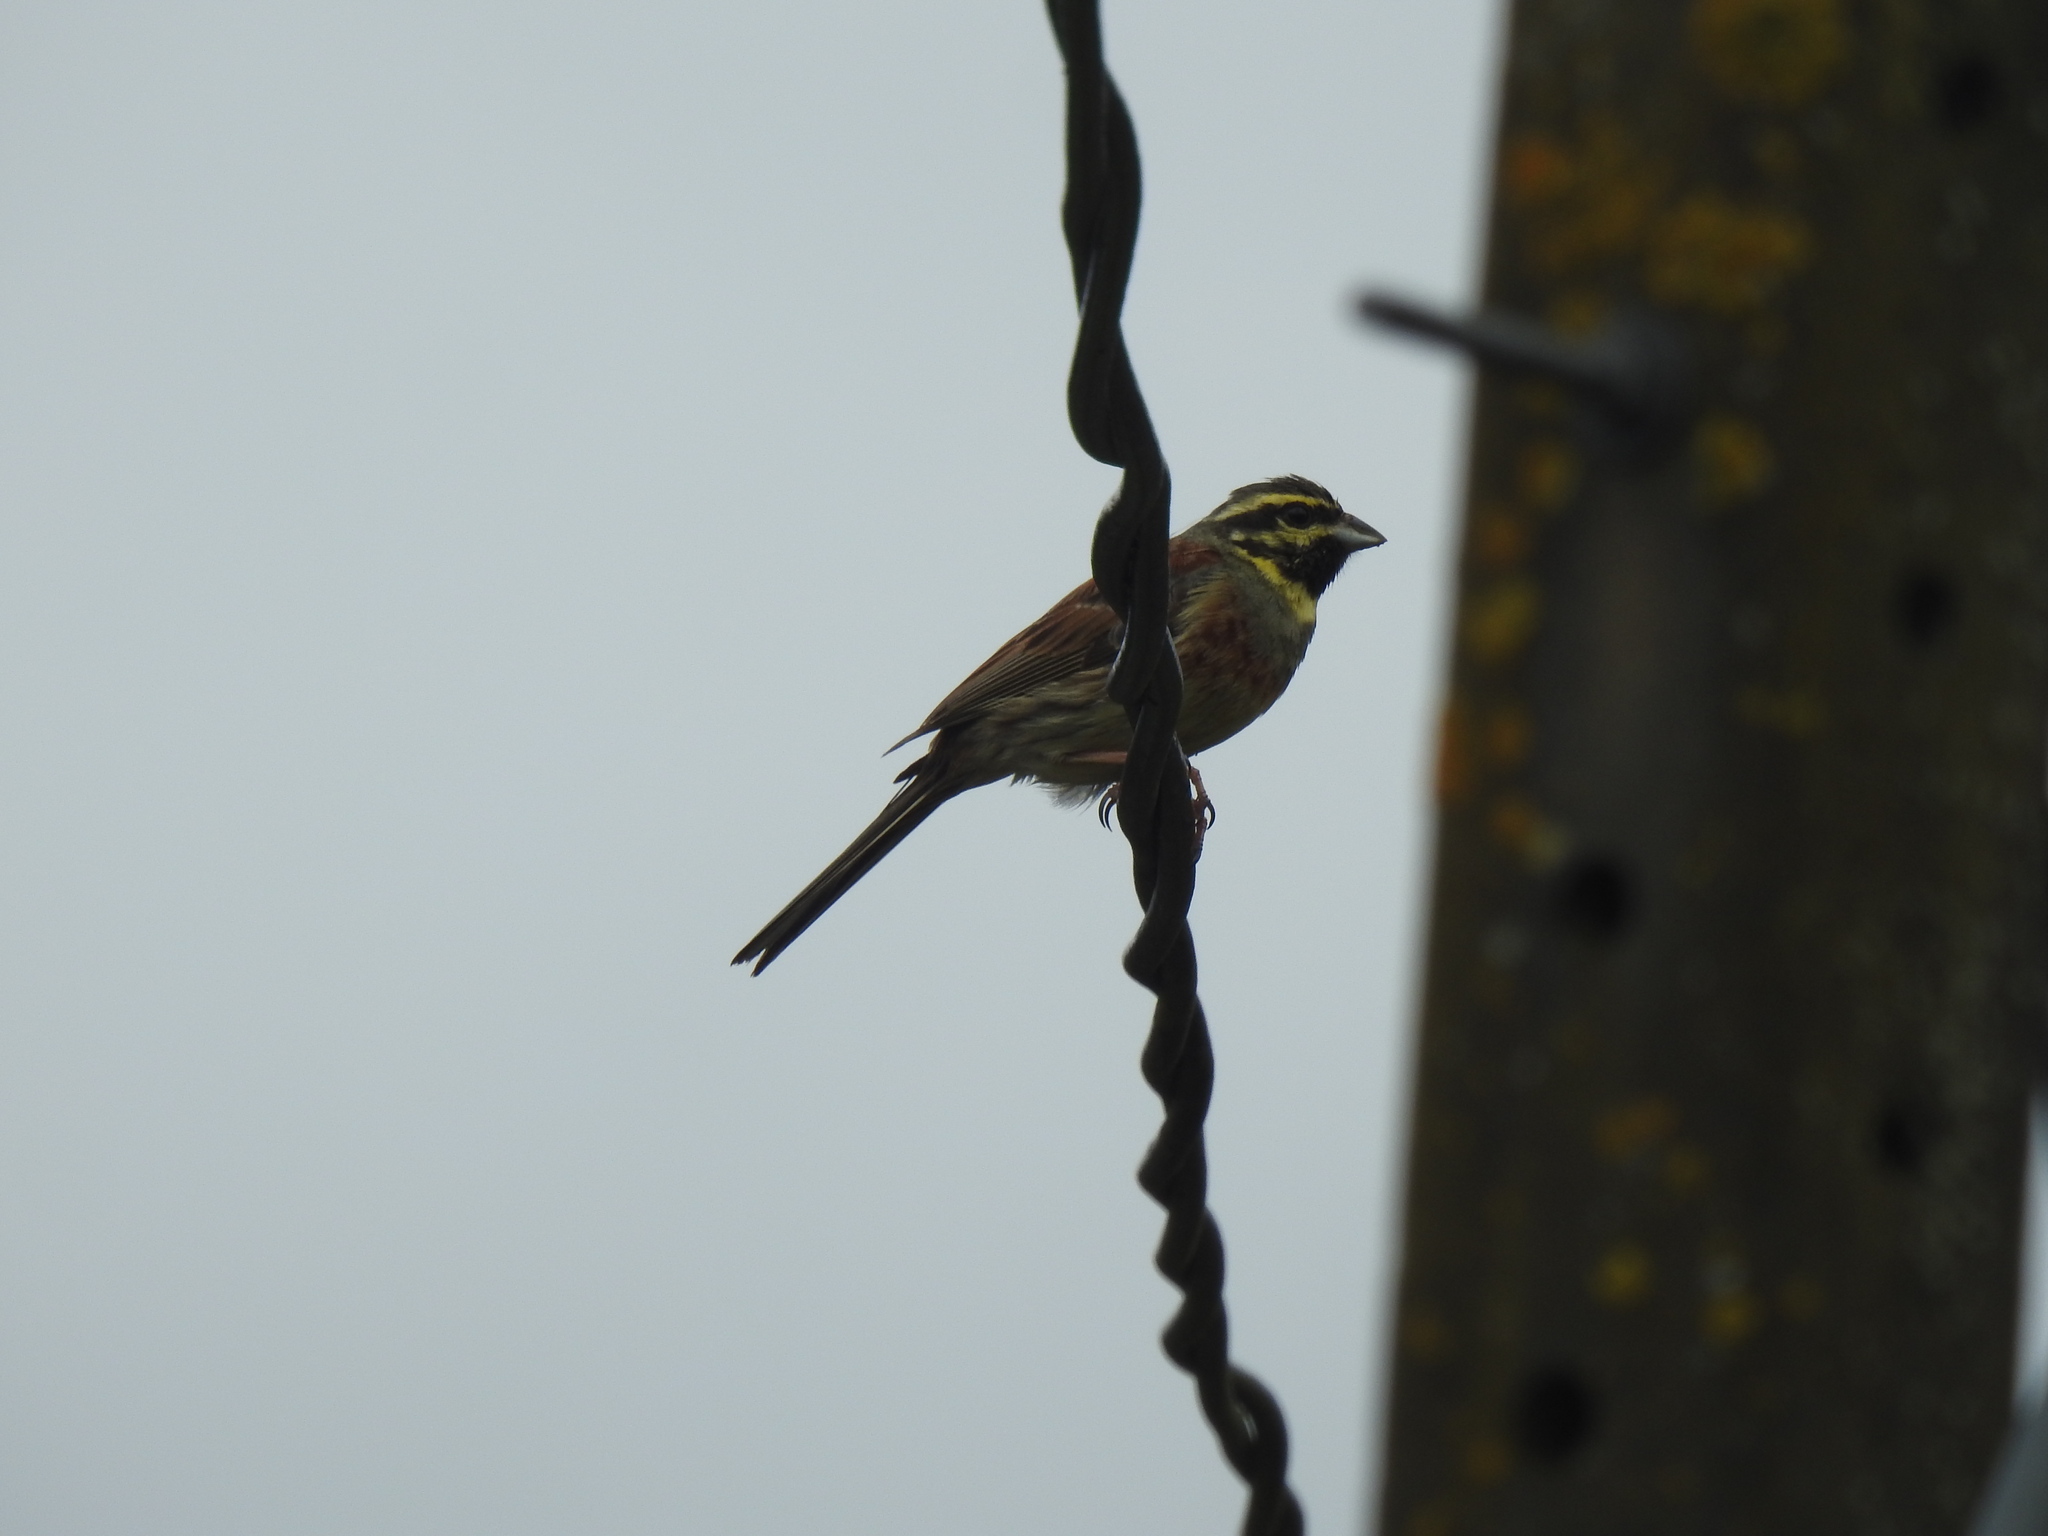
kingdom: Animalia
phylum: Chordata
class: Aves
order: Passeriformes
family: Emberizidae
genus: Emberiza
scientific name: Emberiza cirlus
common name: Cirl bunting
